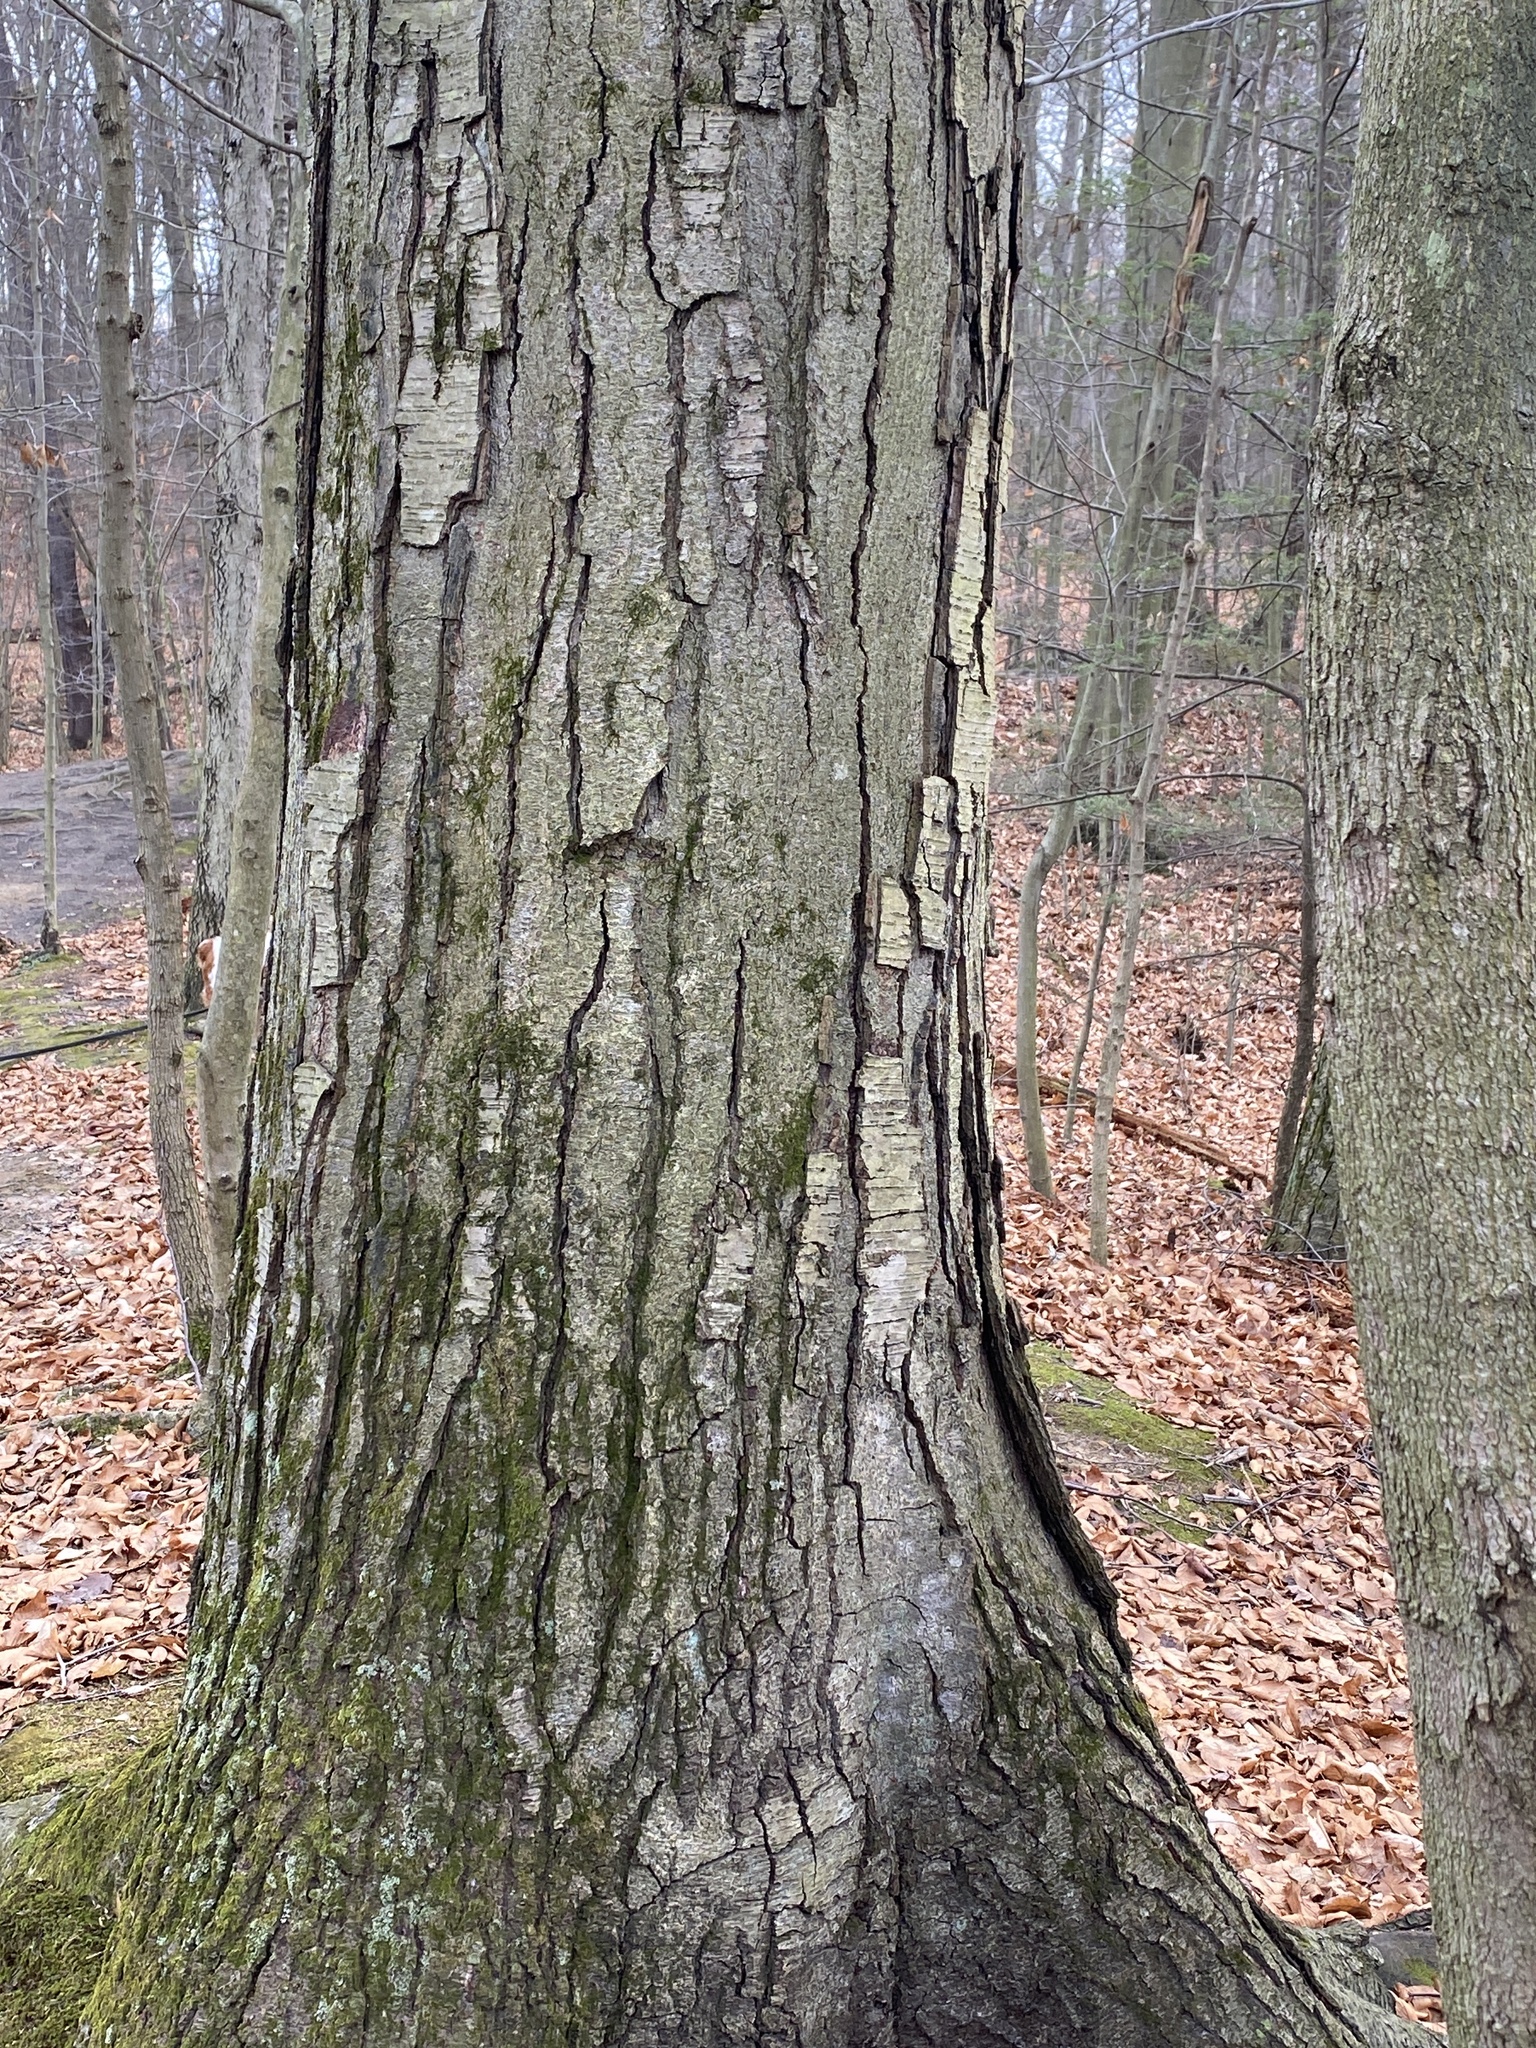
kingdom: Plantae
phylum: Tracheophyta
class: Magnoliopsida
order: Fagales
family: Betulaceae
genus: Betula
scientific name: Betula lenta
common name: Black birch
